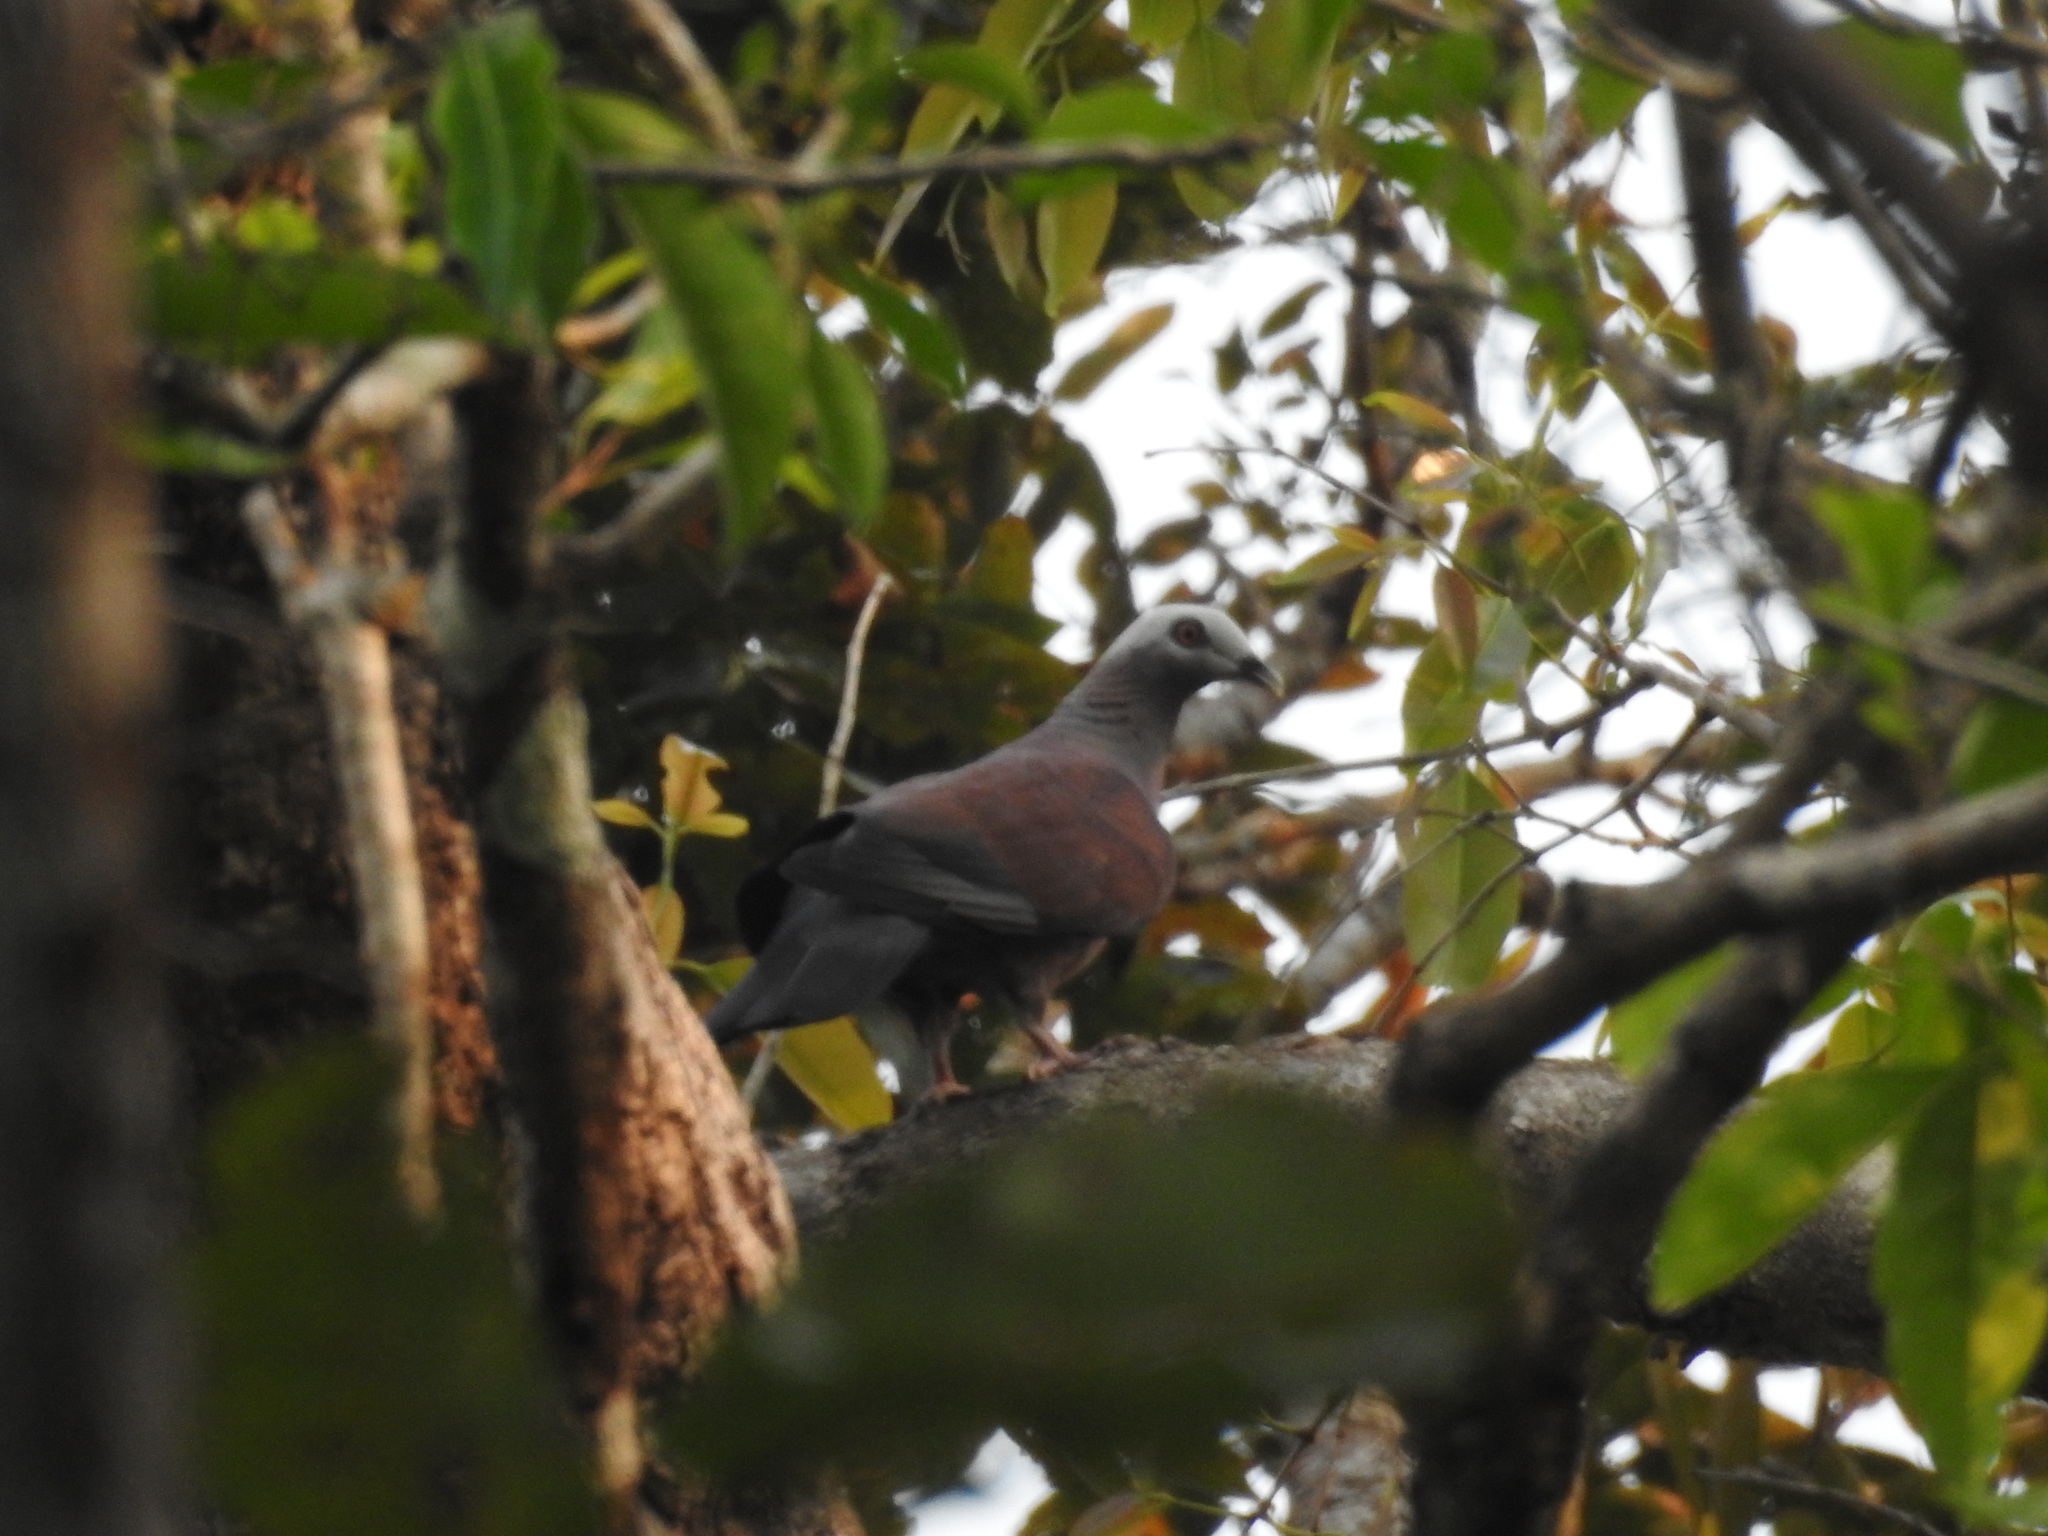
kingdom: Animalia
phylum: Chordata
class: Aves
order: Columbiformes
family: Columbidae
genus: Columba
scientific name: Columba punicea
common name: Pale-capped pigeon
